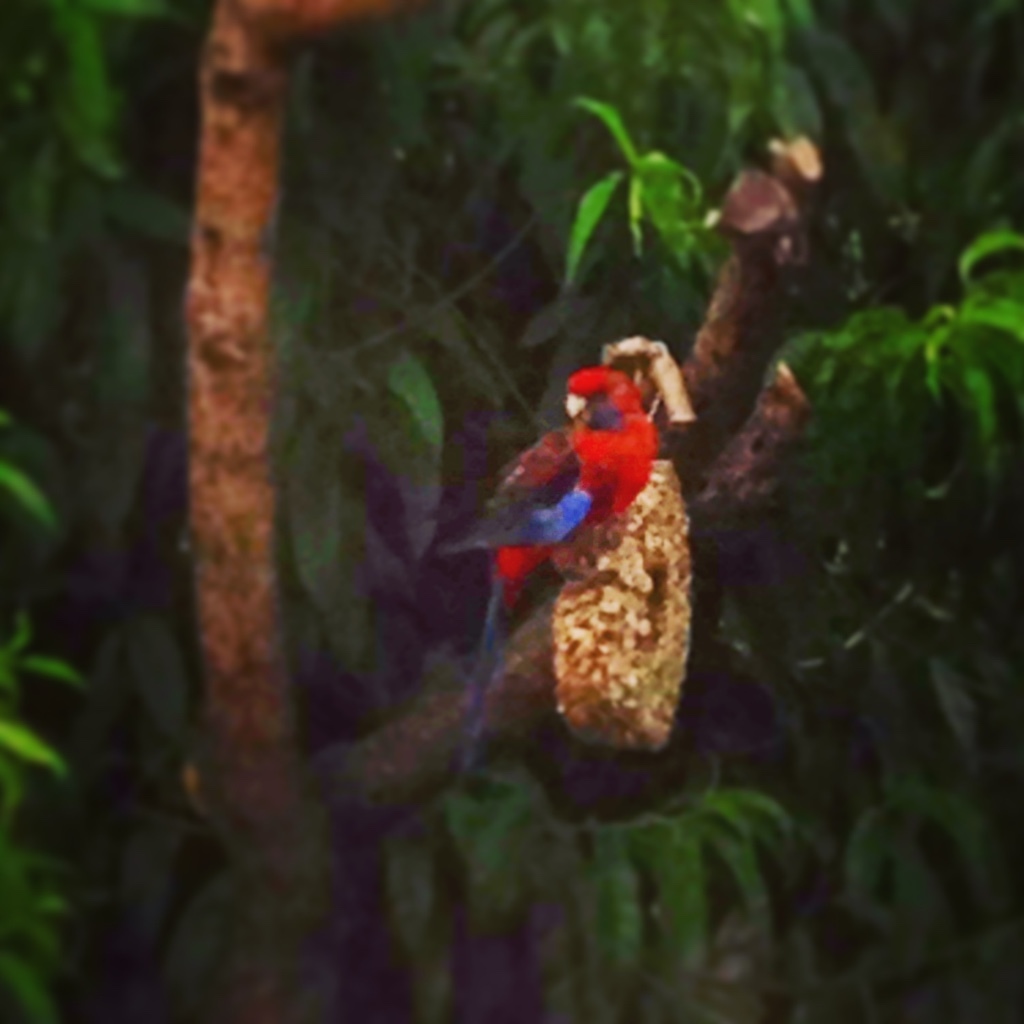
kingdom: Animalia
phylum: Chordata
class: Aves
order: Psittaciformes
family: Psittacidae
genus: Platycercus
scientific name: Platycercus elegans
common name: Crimson rosella
